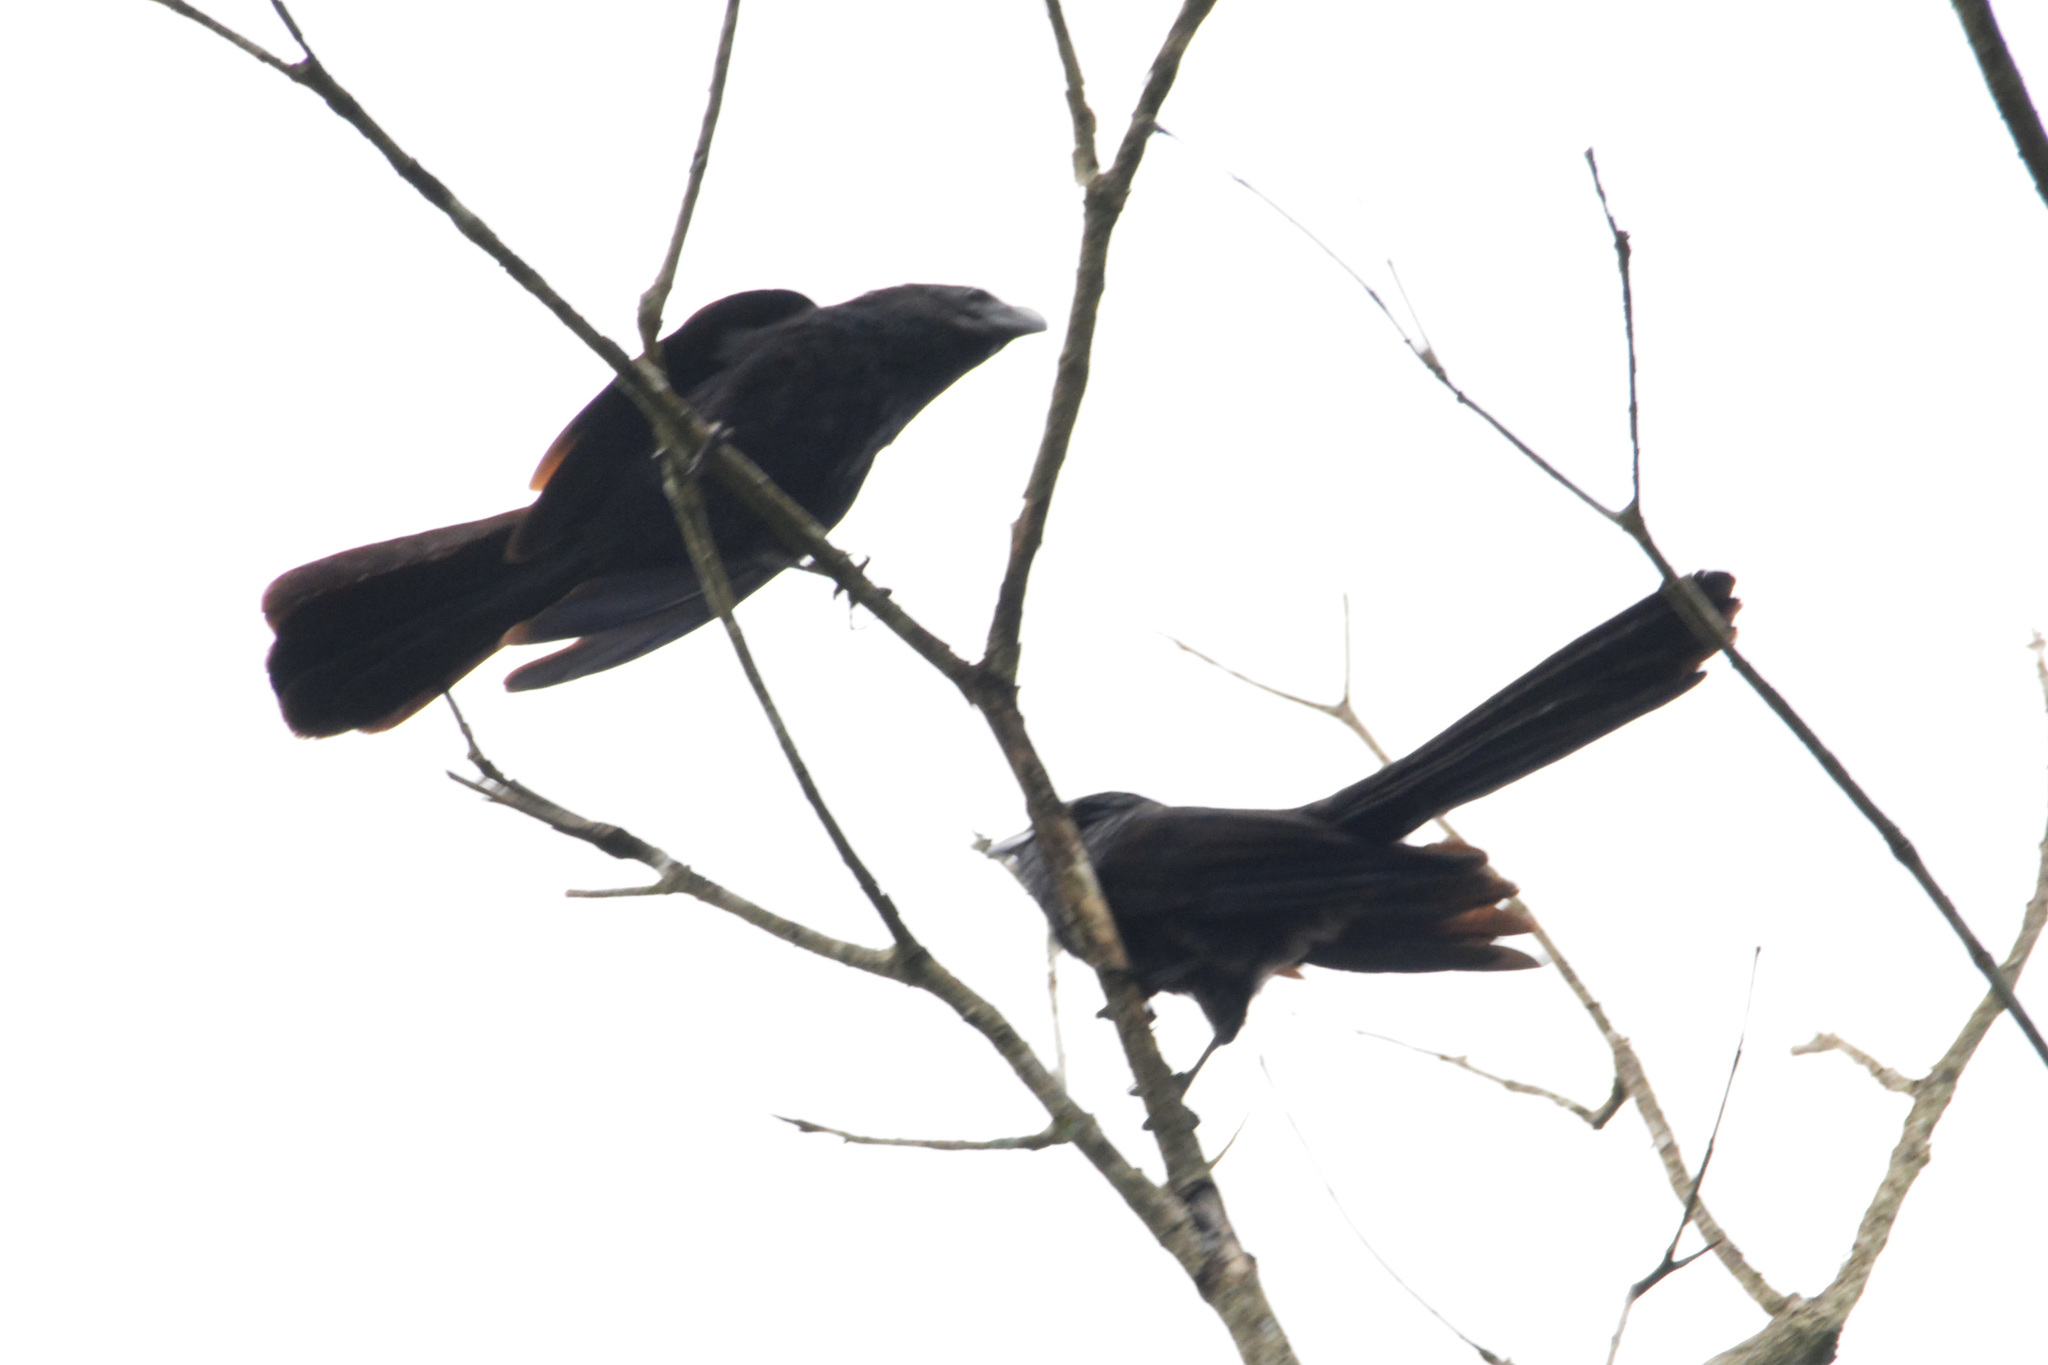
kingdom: Animalia
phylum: Chordata
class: Aves
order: Cuculiformes
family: Cuculidae
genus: Crotophaga
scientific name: Crotophaga ani
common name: Smooth-billed ani
